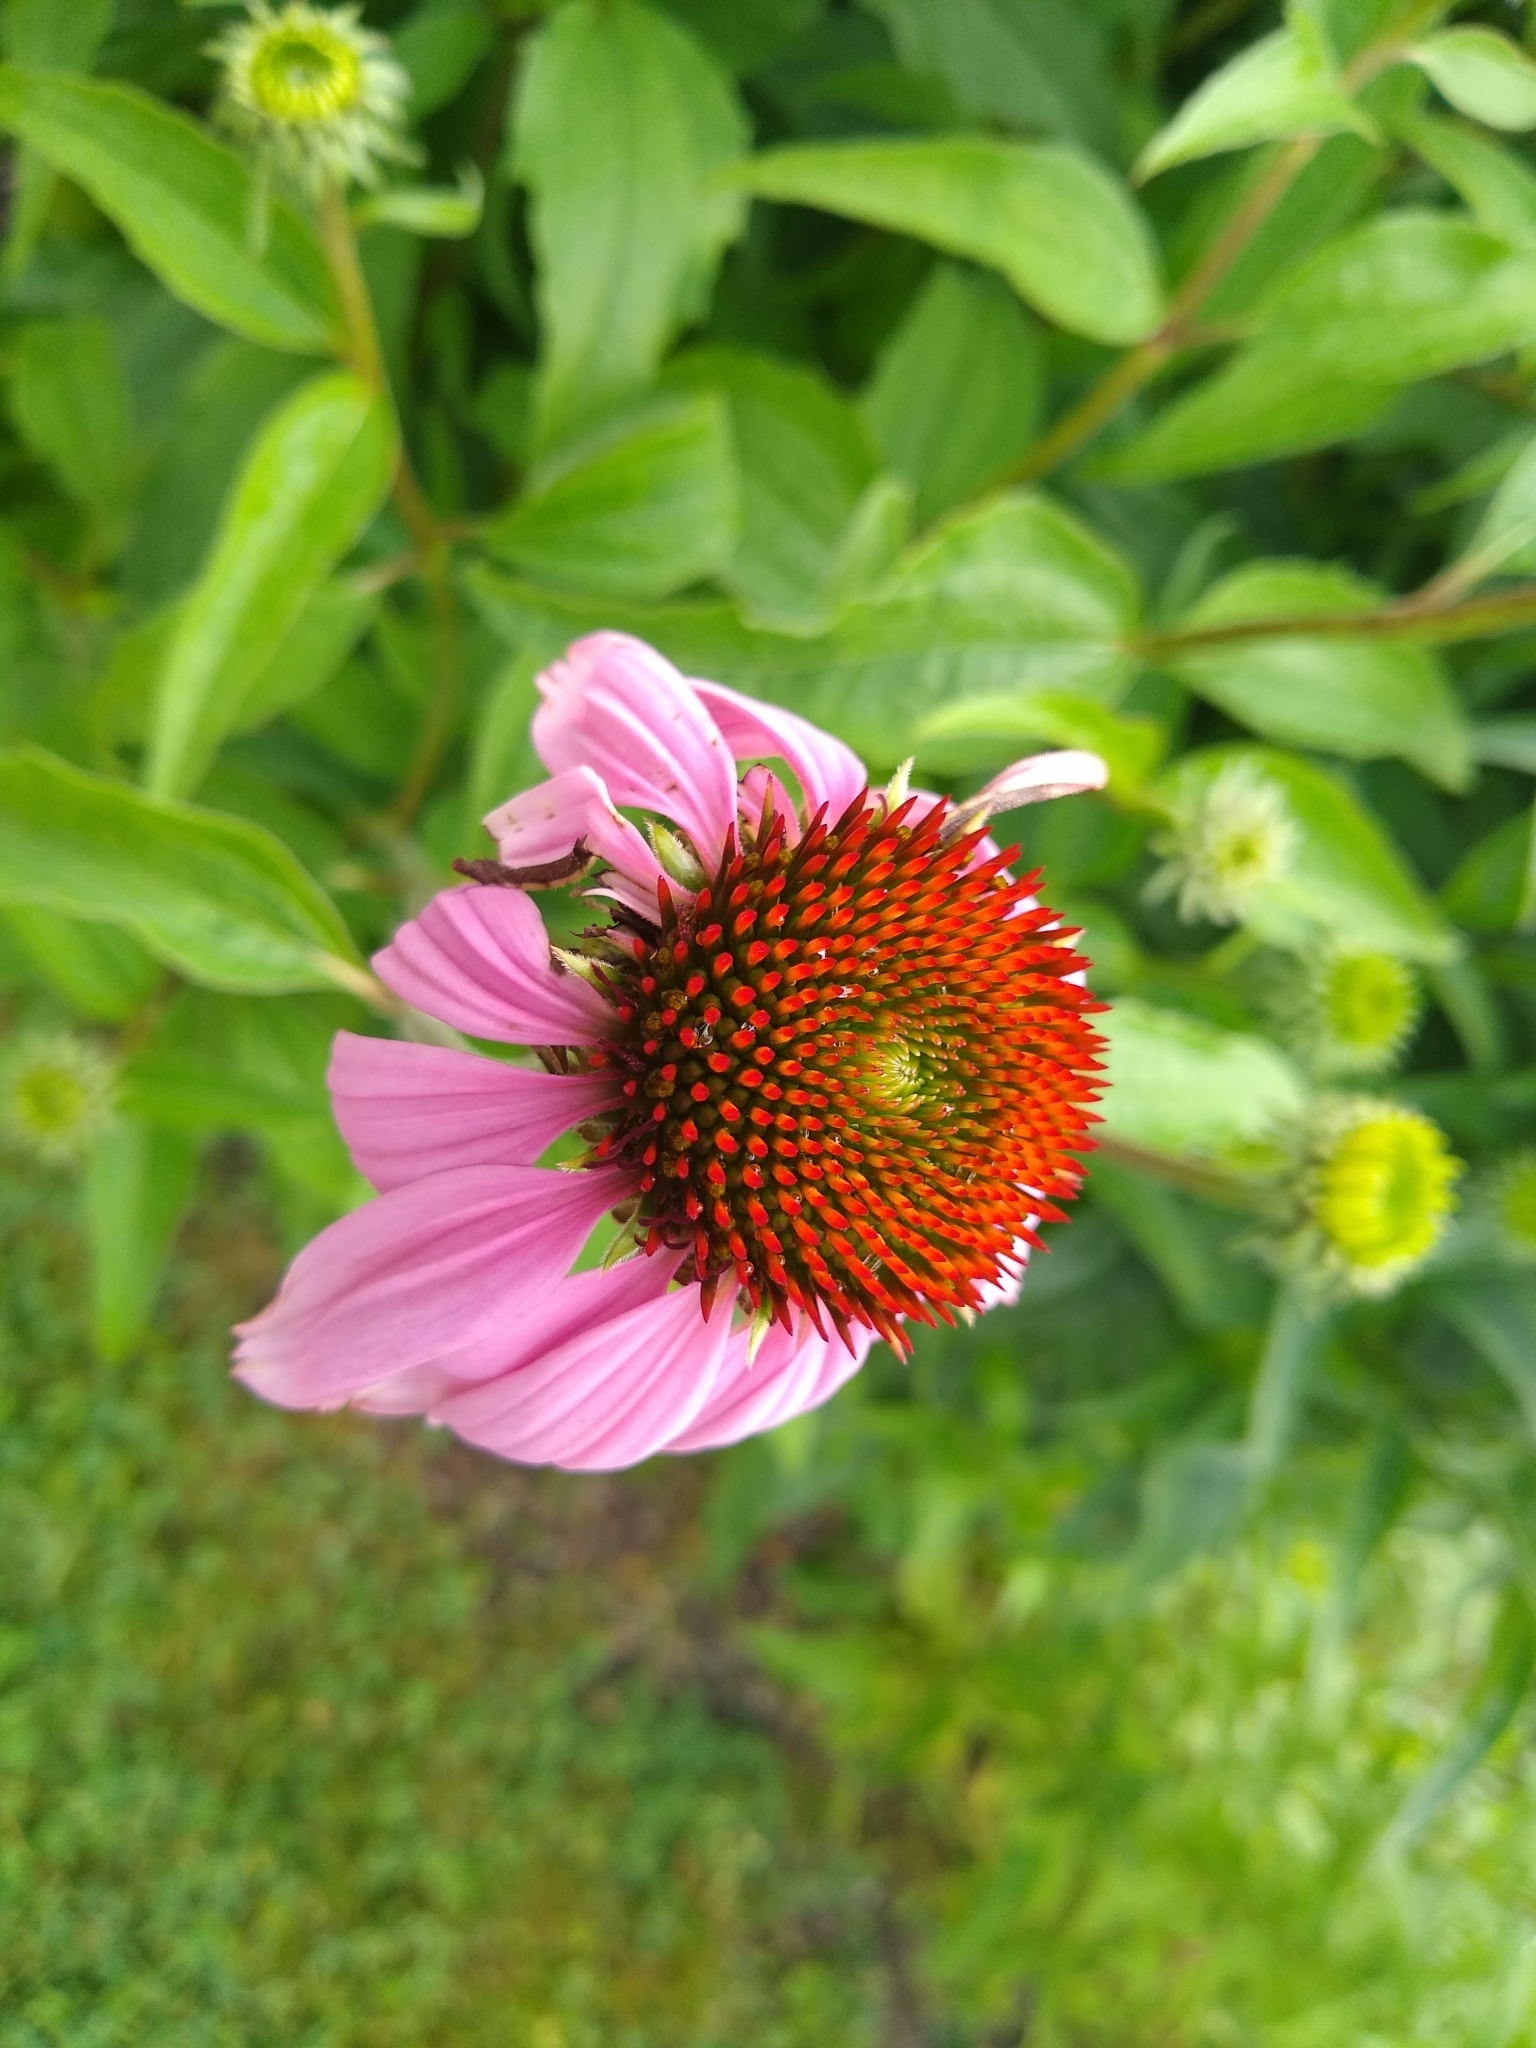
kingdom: Plantae
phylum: Tracheophyta
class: Magnoliopsida
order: Asterales
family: Asteraceae
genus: Echinacea
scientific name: Echinacea purpurea
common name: Broad-leaved purple coneflower
